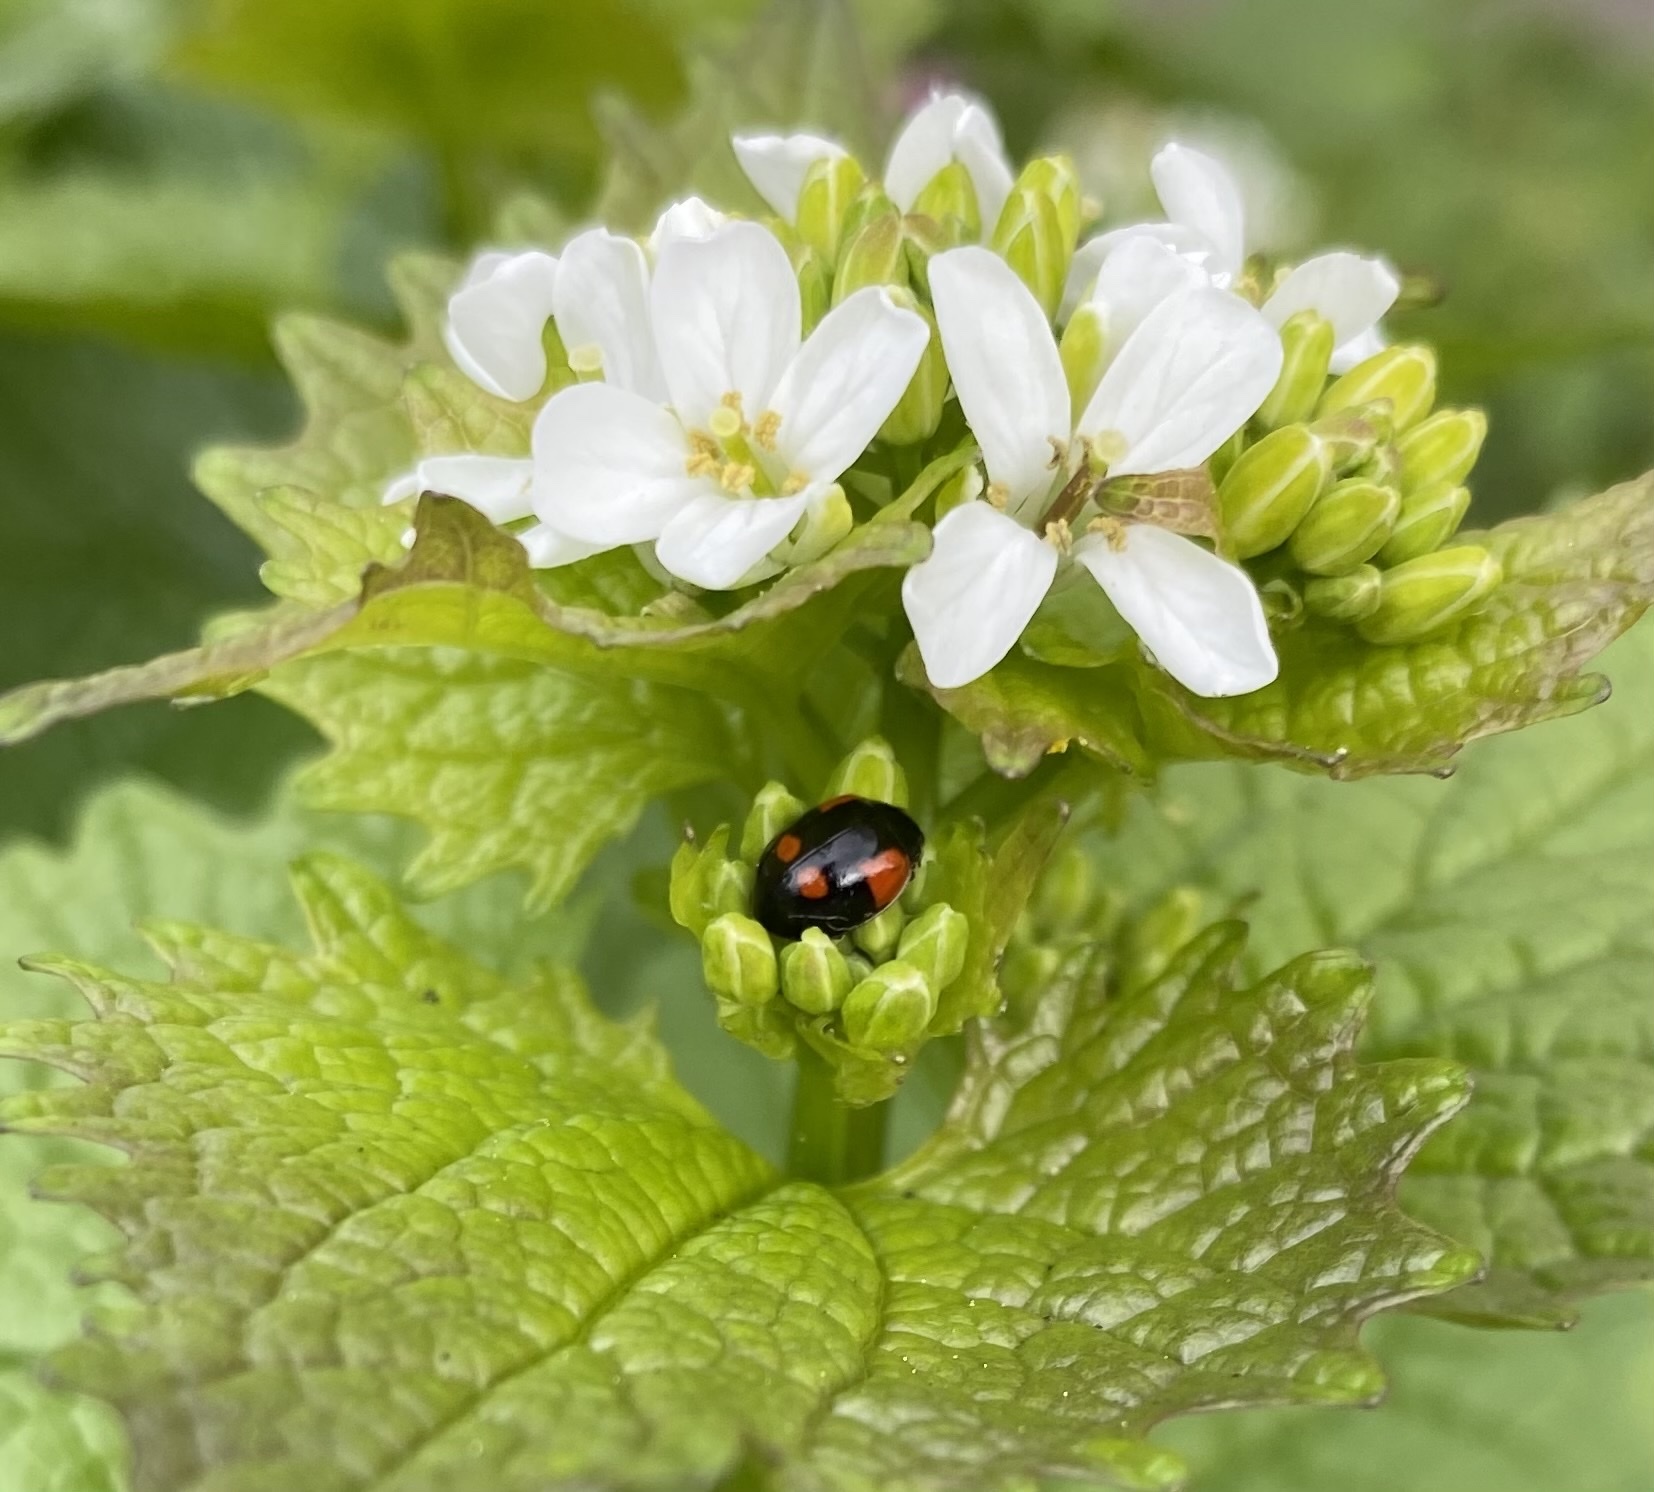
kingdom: Animalia
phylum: Arthropoda
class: Insecta
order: Coleoptera
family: Coccinellidae
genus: Adalia
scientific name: Adalia bipunctata
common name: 2-spot ladybird
